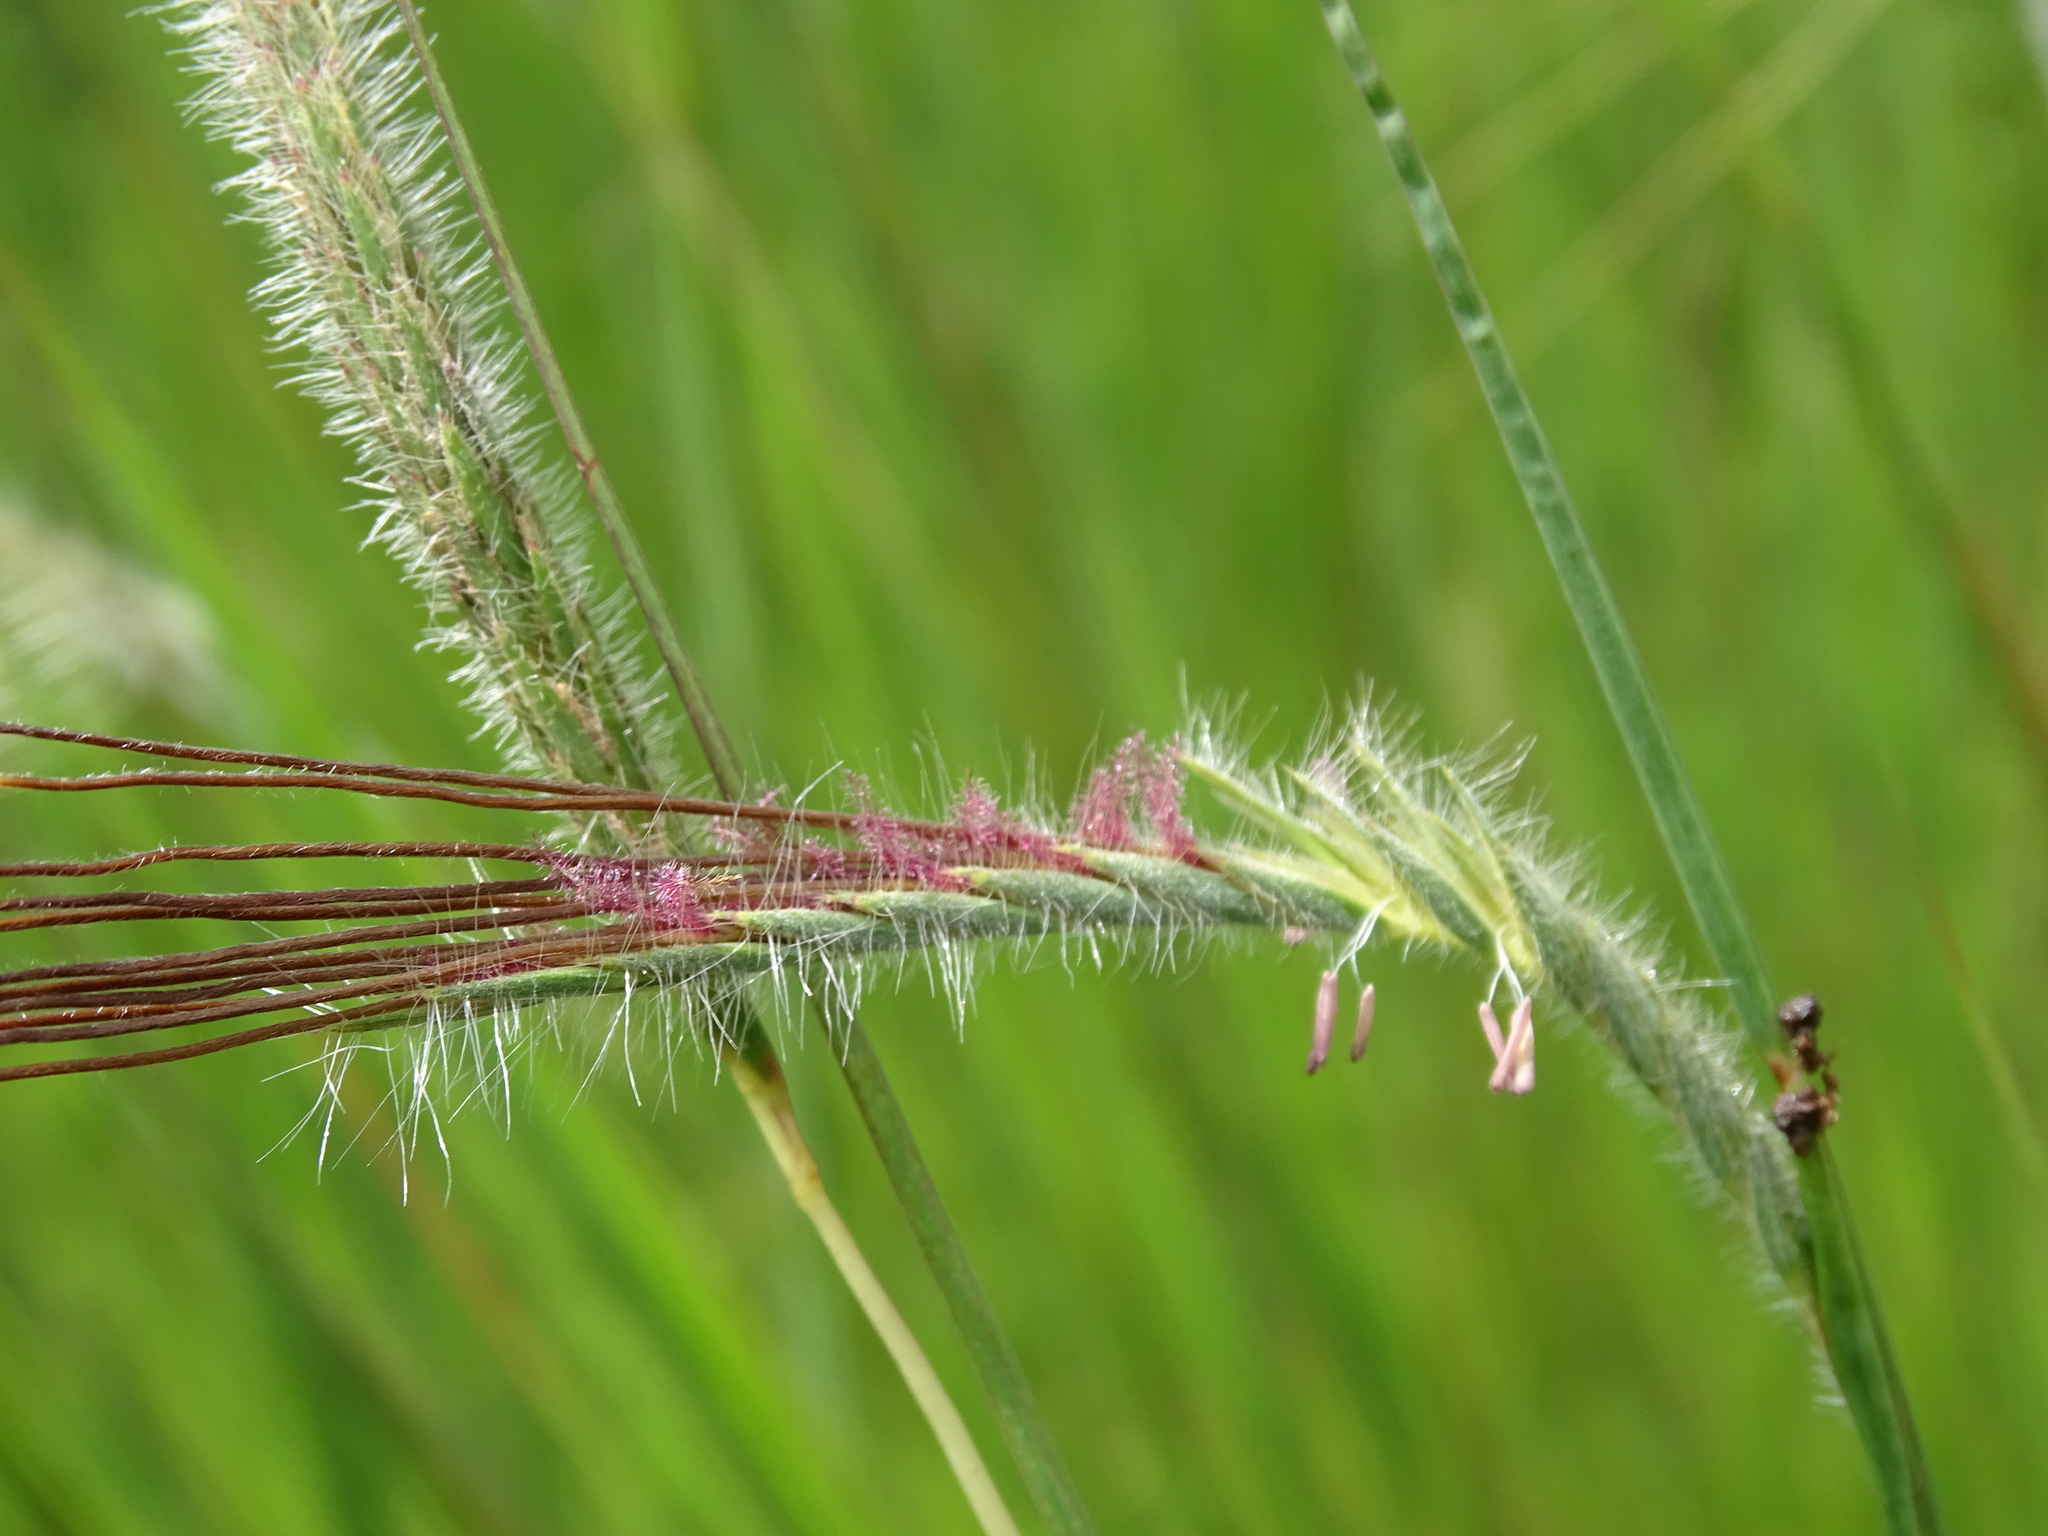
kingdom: Plantae
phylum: Tracheophyta
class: Liliopsida
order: Poales
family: Poaceae
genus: Heteropogon
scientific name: Heteropogon contortus
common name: Tanglehead
